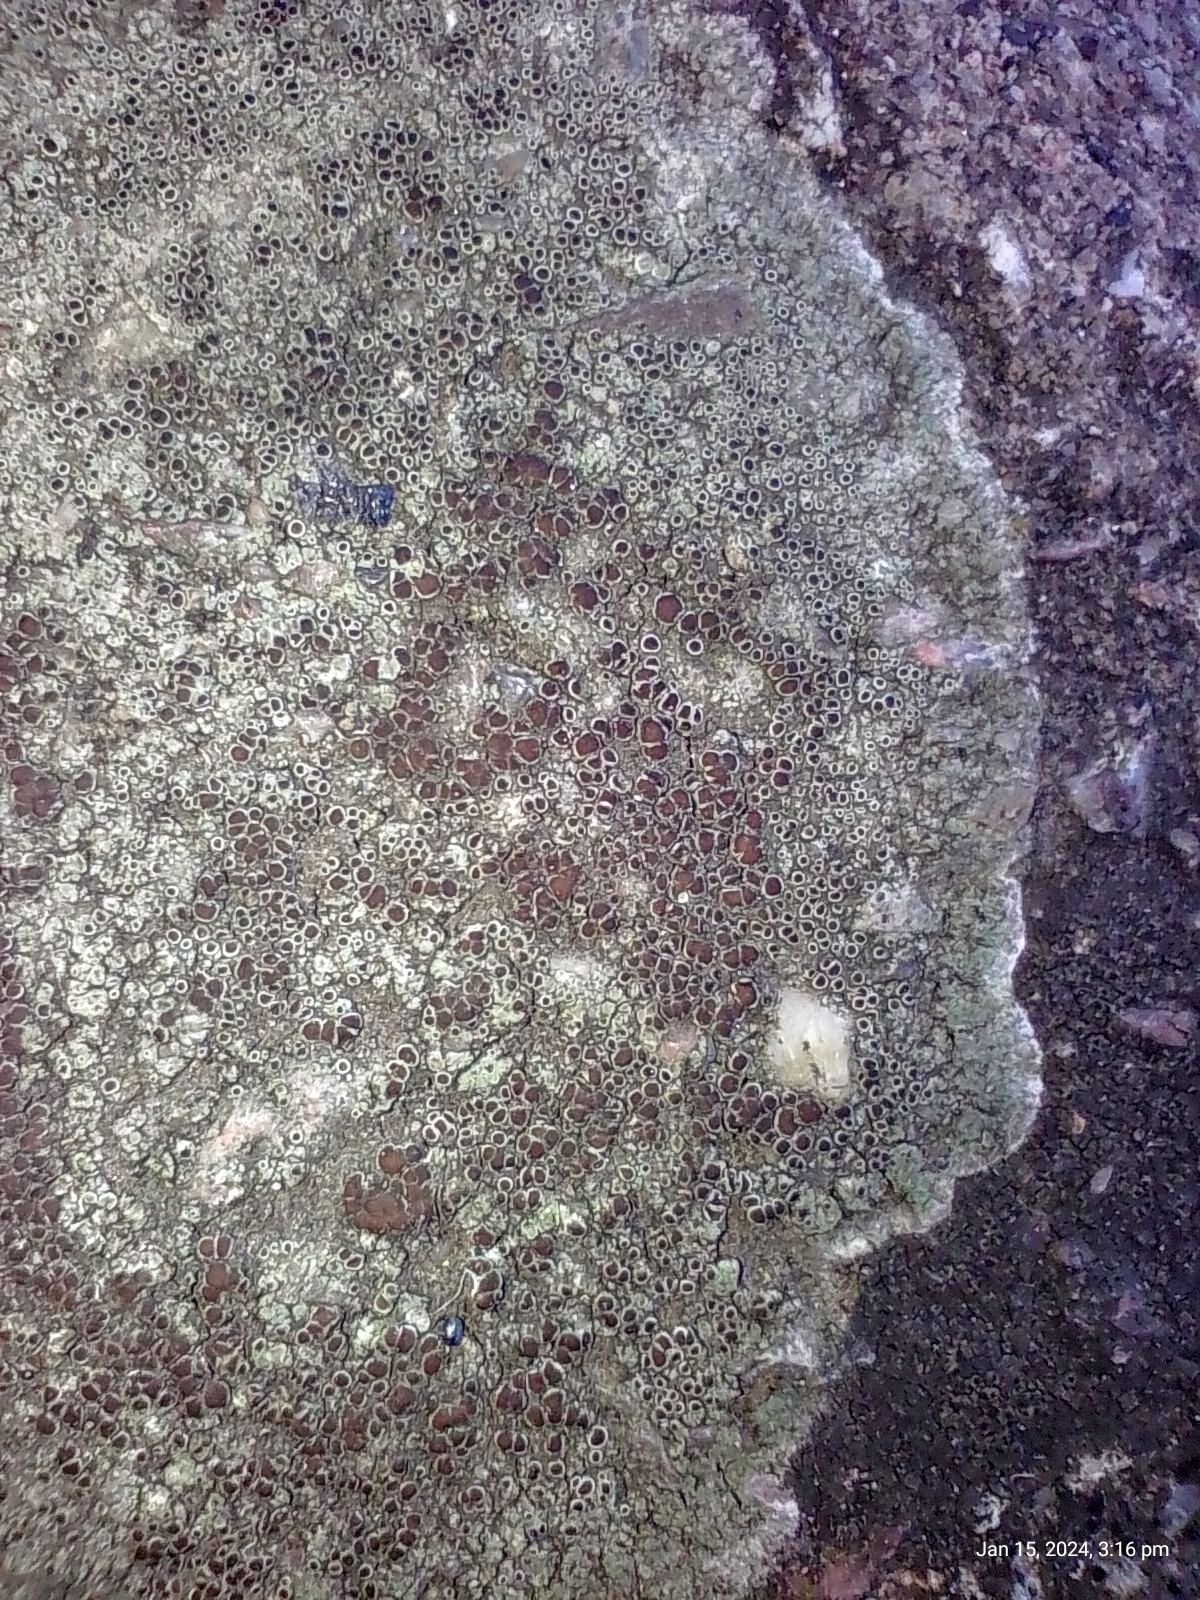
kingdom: Fungi
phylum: Ascomycota
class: Lecanoromycetes
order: Lecanorales
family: Lecanoraceae
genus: Lecanora
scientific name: Lecanora campestris
